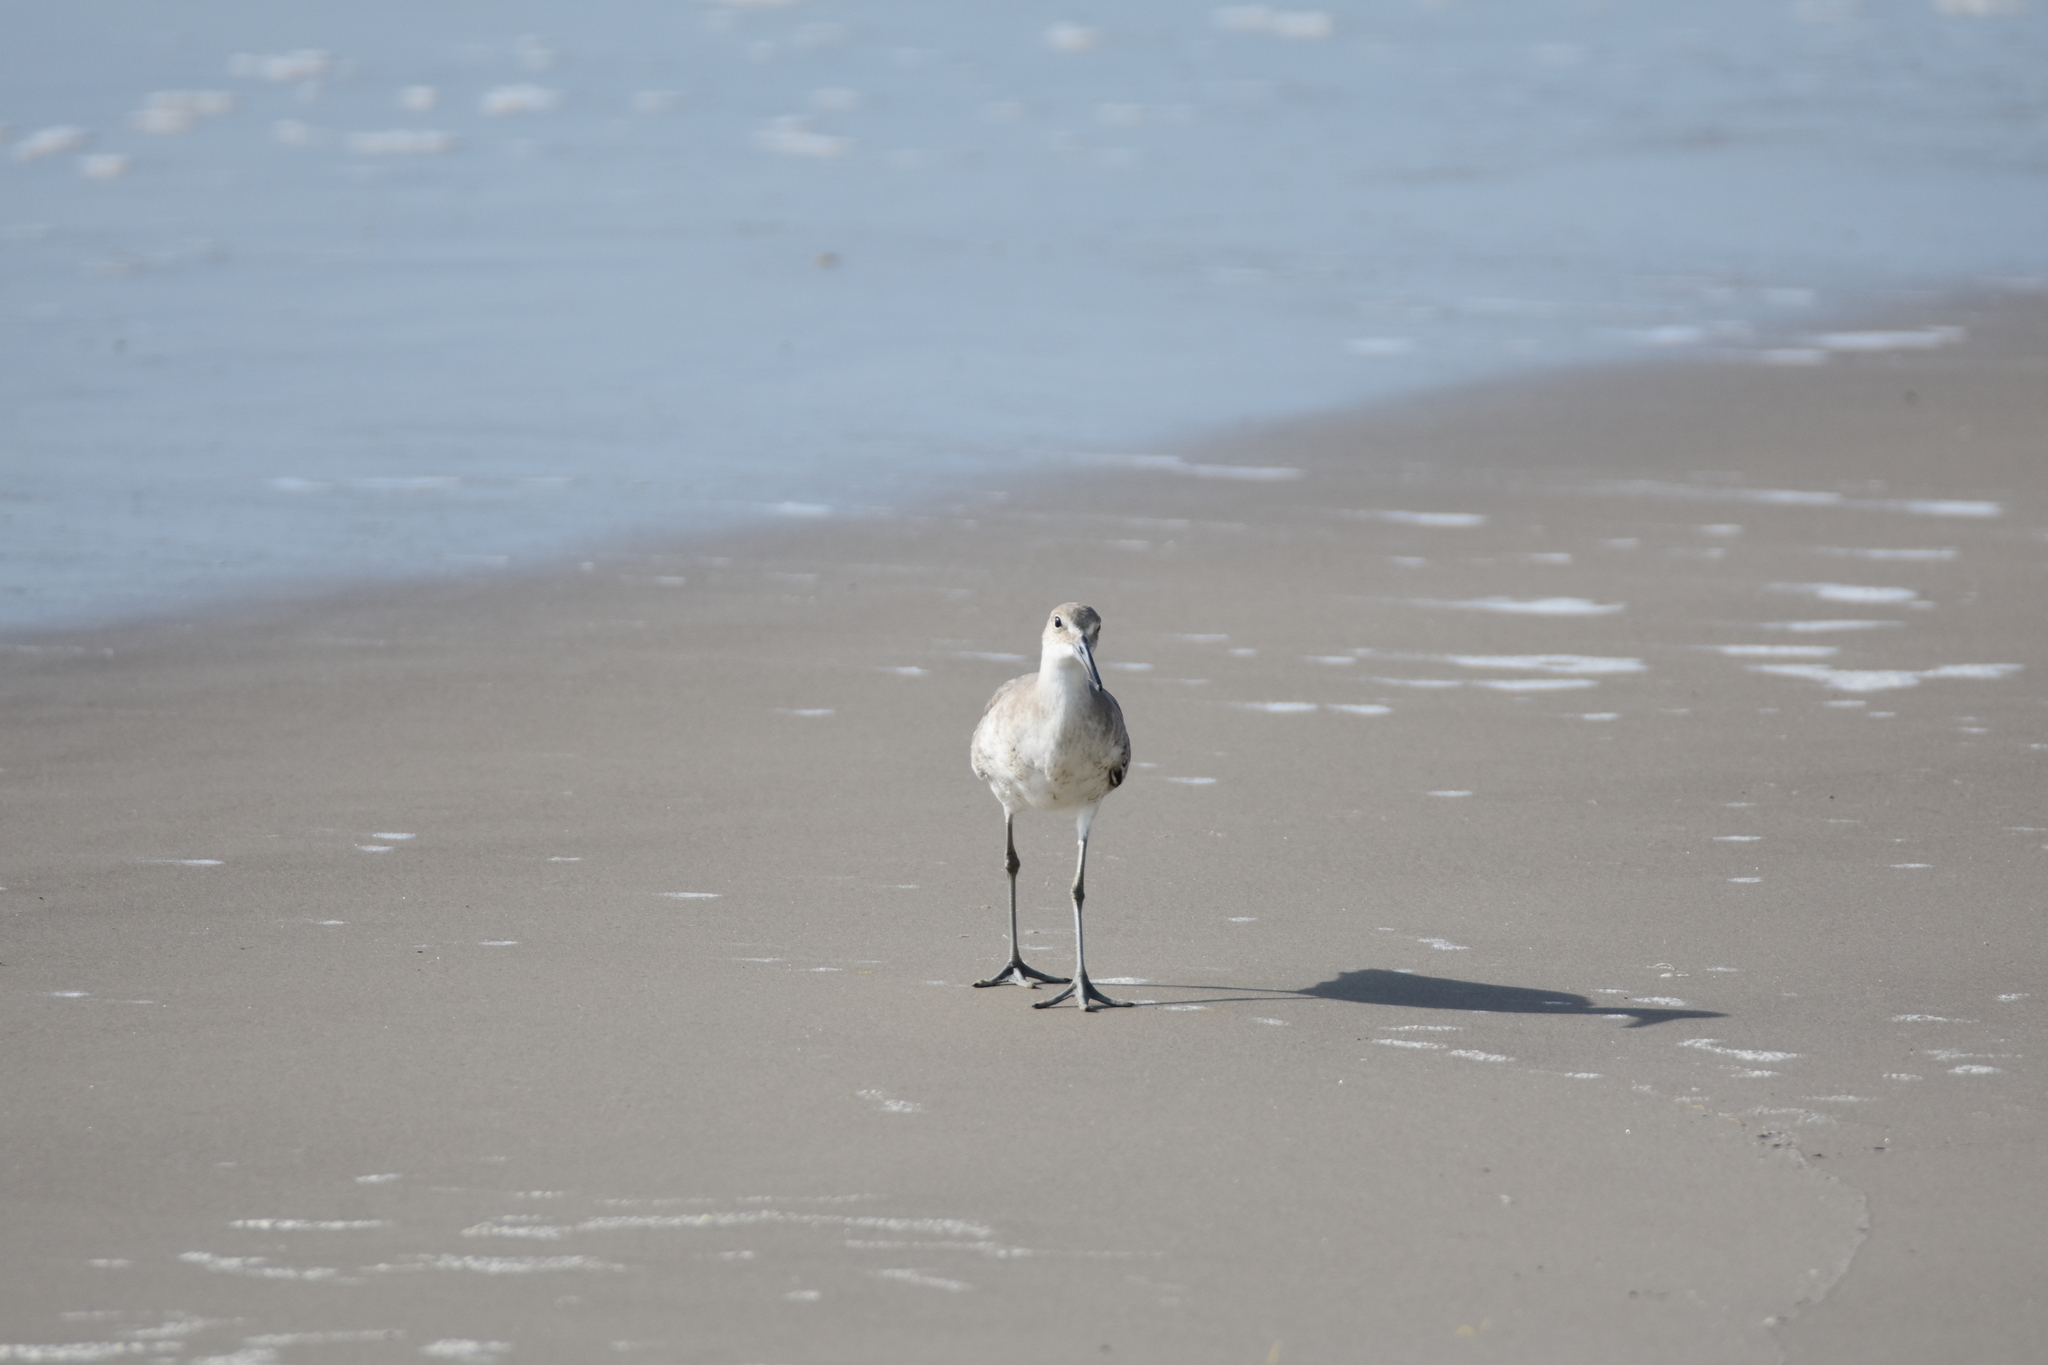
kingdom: Animalia
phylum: Chordata
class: Aves
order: Charadriiformes
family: Scolopacidae
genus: Tringa
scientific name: Tringa semipalmata
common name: Willet
